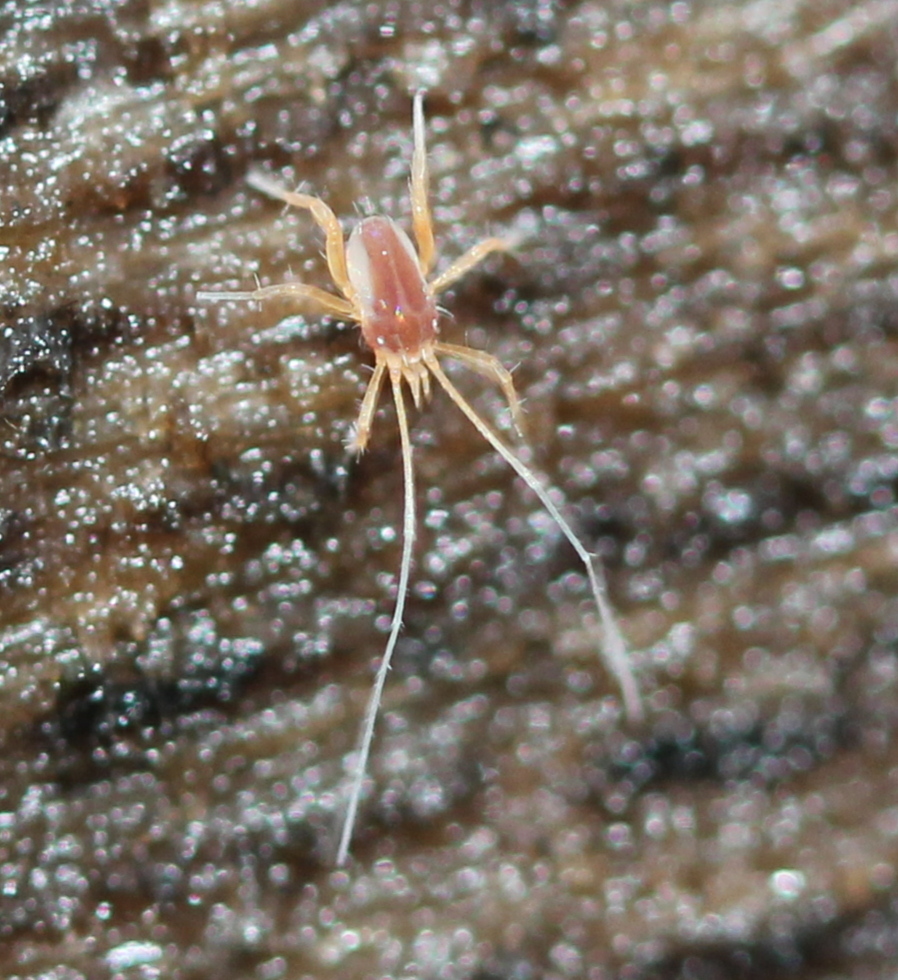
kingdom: Animalia
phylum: Arthropoda
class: Arachnida
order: Trombidiformes
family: Eupodidae
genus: Linopodes
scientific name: Linopodes
